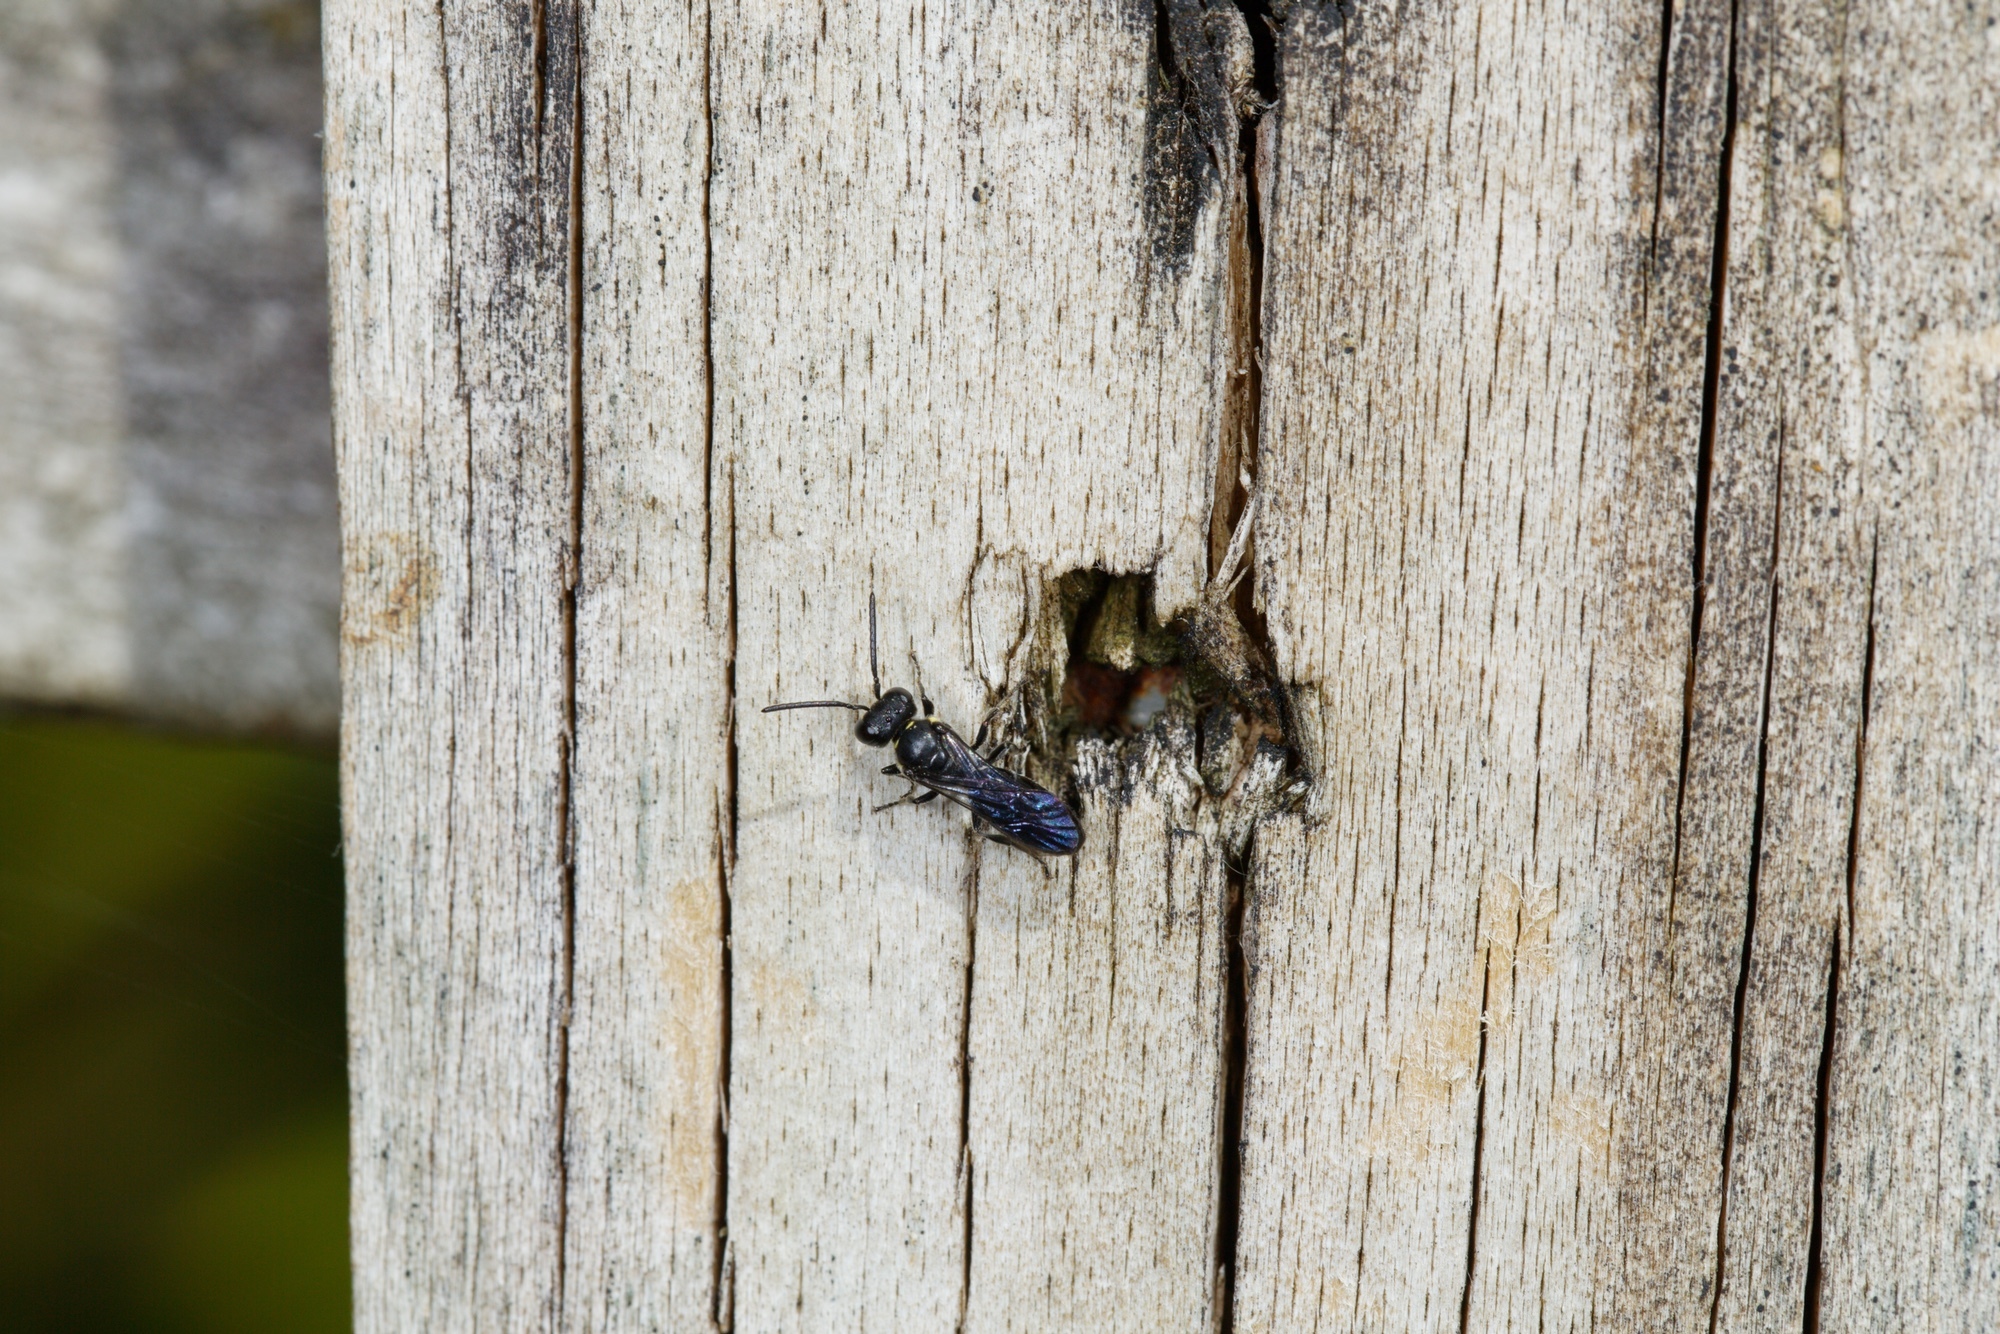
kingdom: Animalia
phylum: Arthropoda
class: Insecta
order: Hymenoptera
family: Colletidae
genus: Hylaeus
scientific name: Hylaeus relegatus
